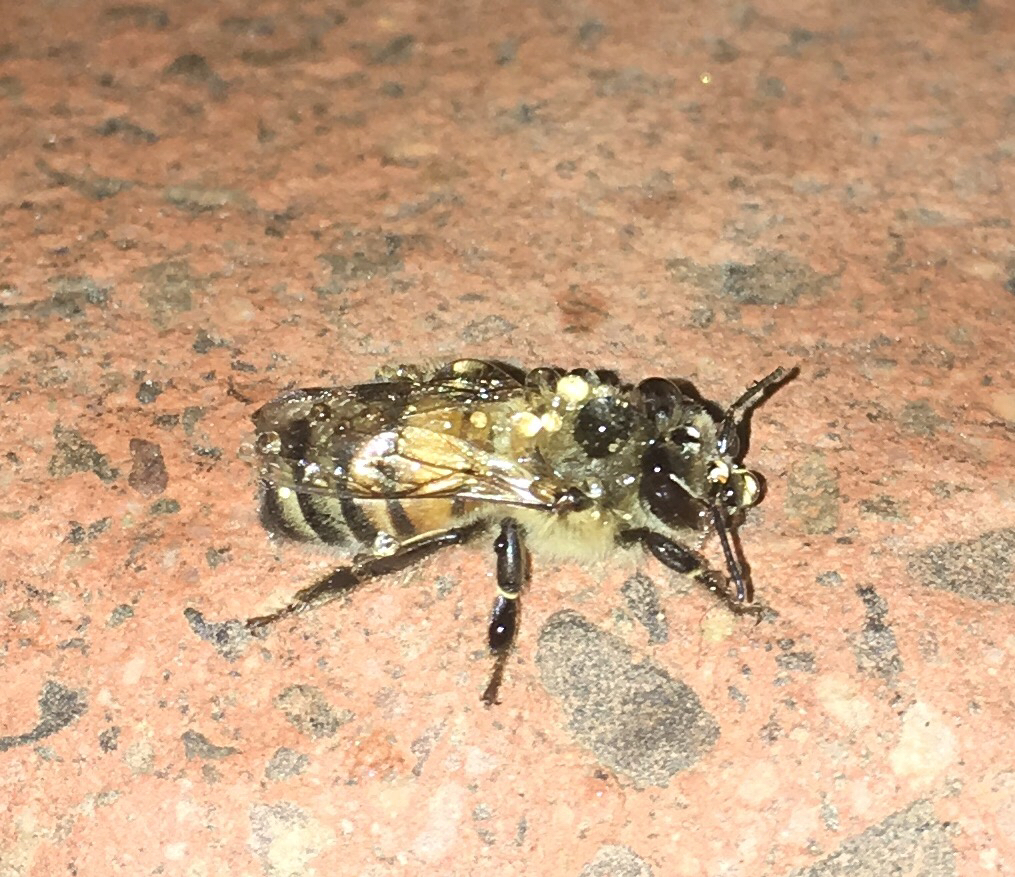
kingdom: Animalia
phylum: Arthropoda
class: Insecta
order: Hymenoptera
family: Apidae
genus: Apis
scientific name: Apis mellifera
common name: Honey bee
